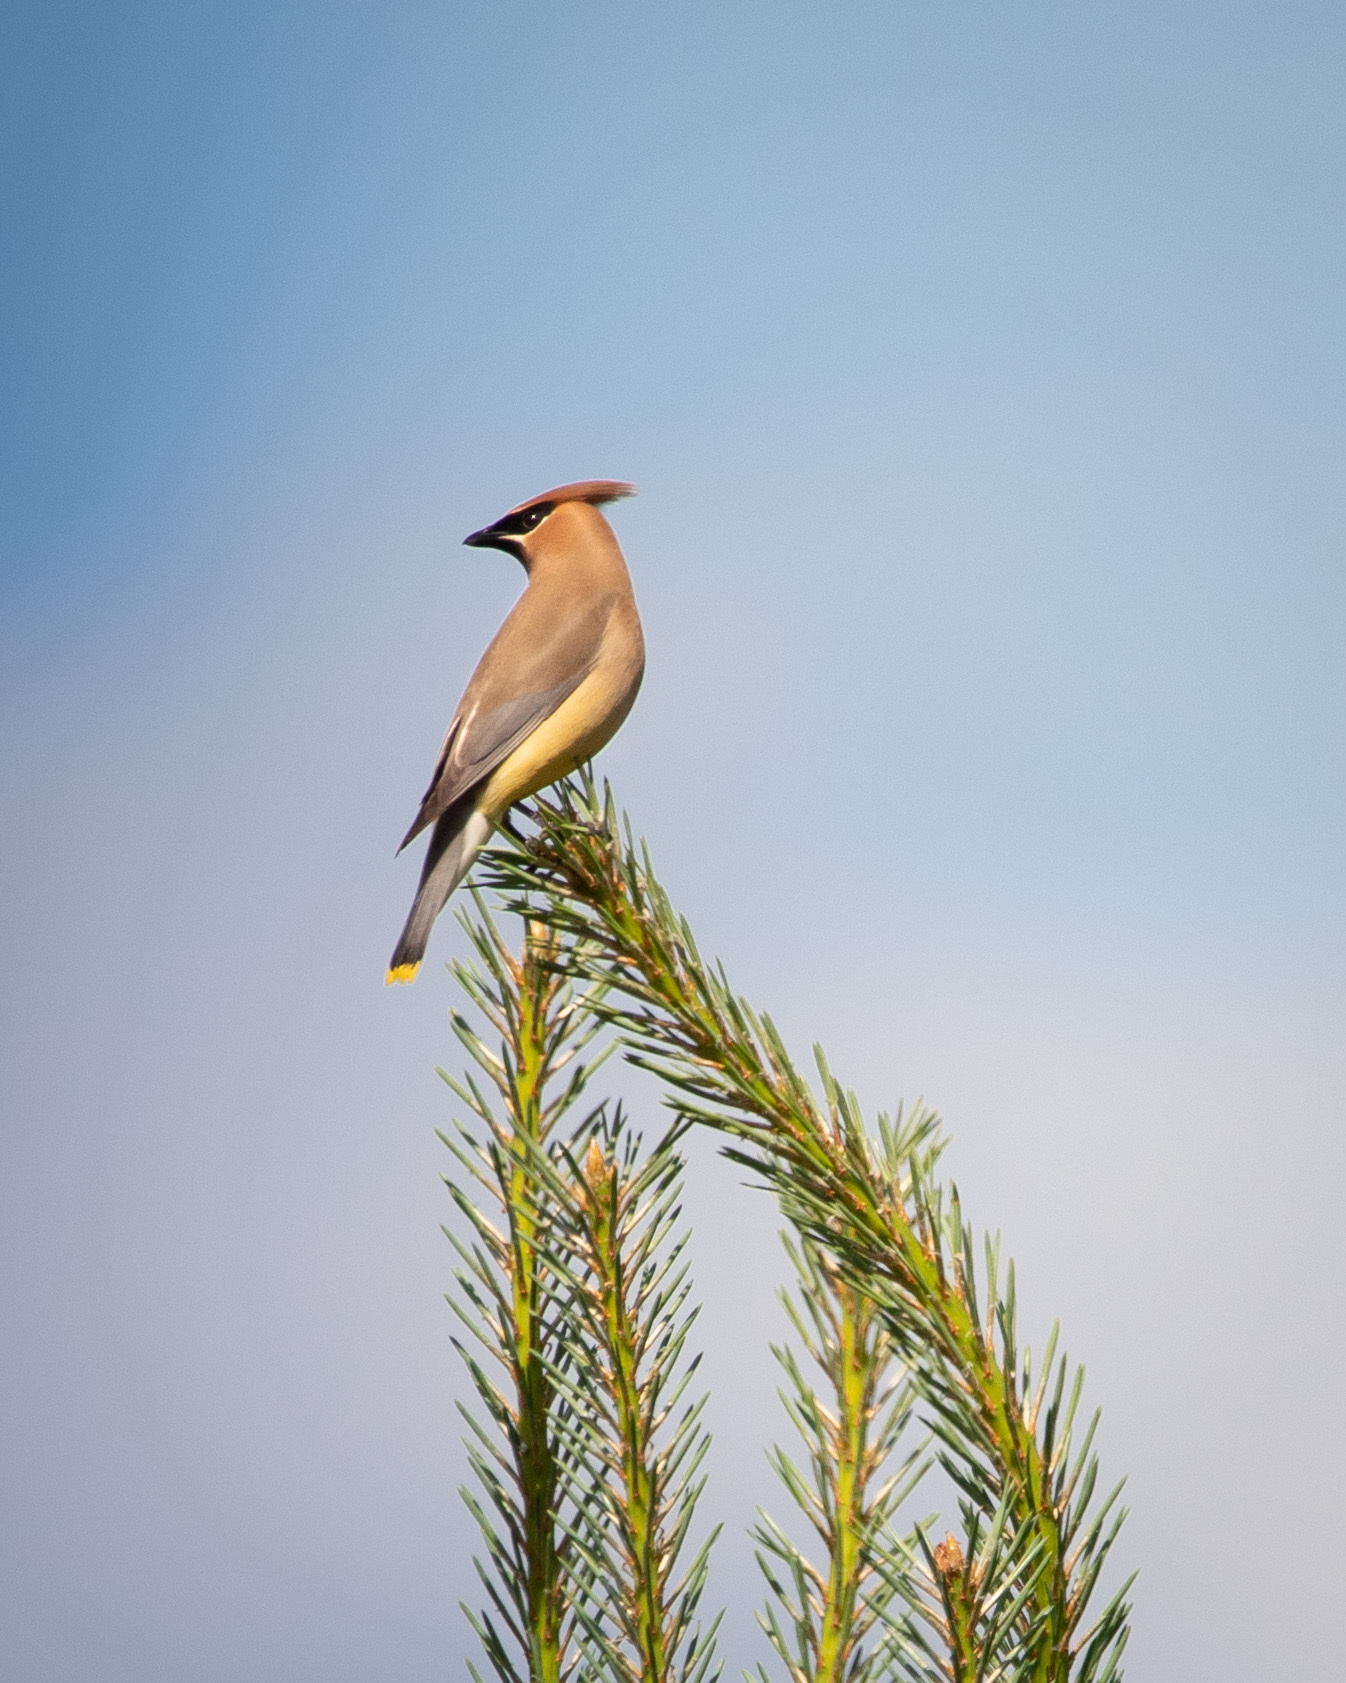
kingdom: Animalia
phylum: Chordata
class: Aves
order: Passeriformes
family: Bombycillidae
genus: Bombycilla
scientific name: Bombycilla cedrorum
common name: Cedar waxwing
